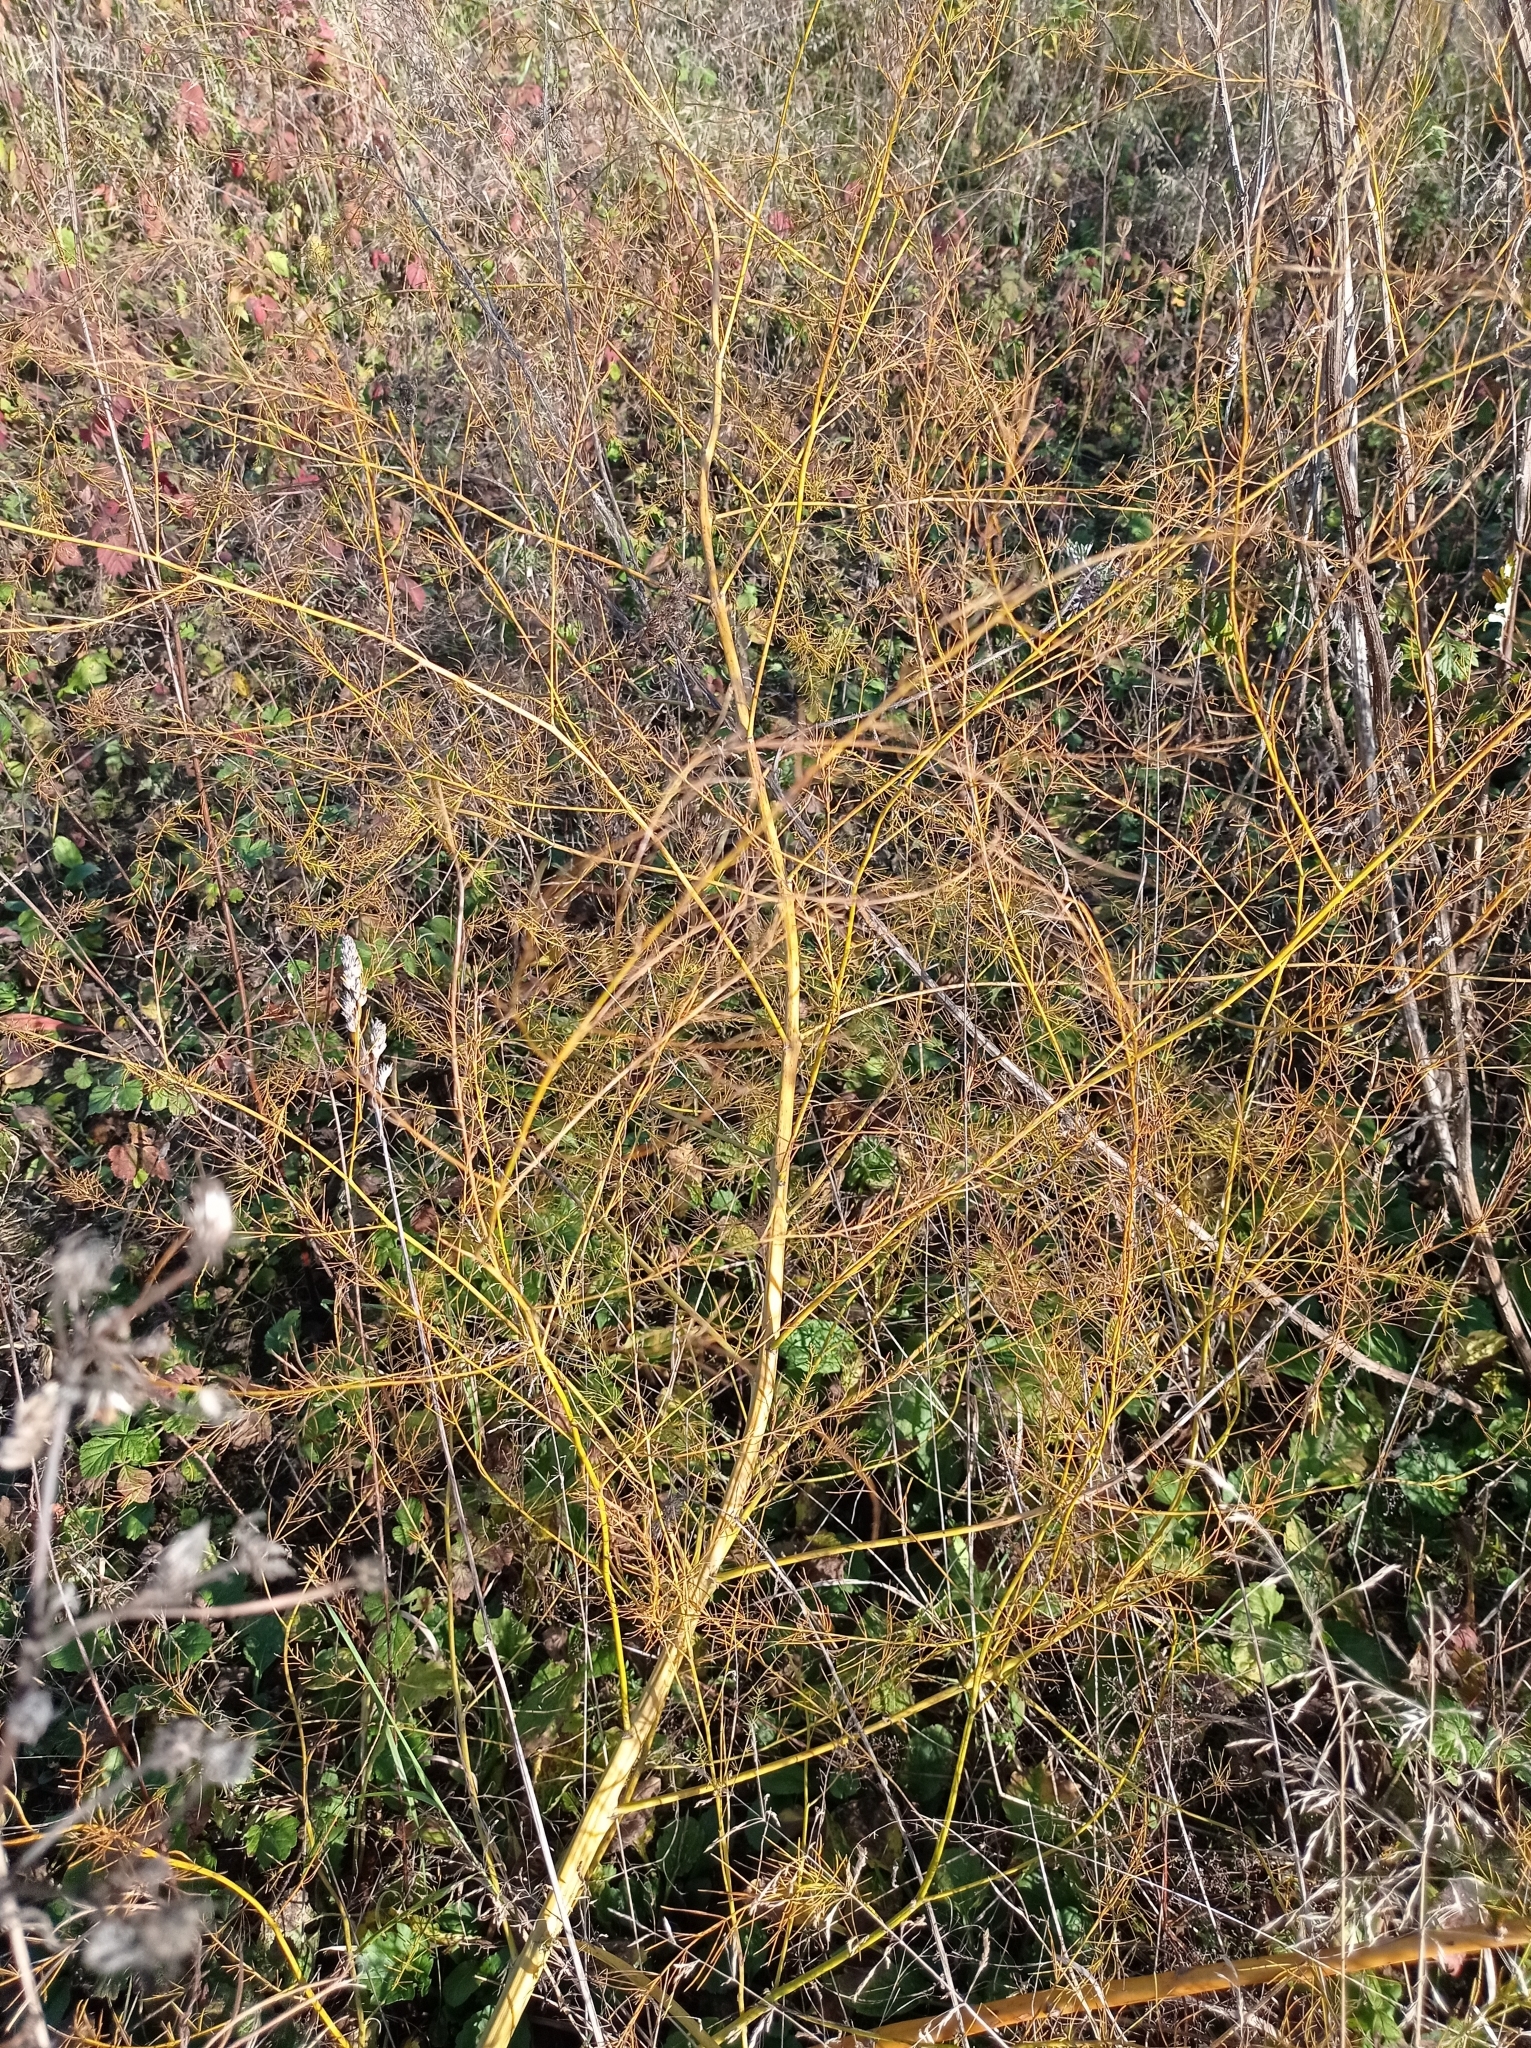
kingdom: Plantae
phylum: Tracheophyta
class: Liliopsida
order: Asparagales
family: Asparagaceae
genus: Asparagus
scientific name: Asparagus officinalis
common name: Garden asparagus
